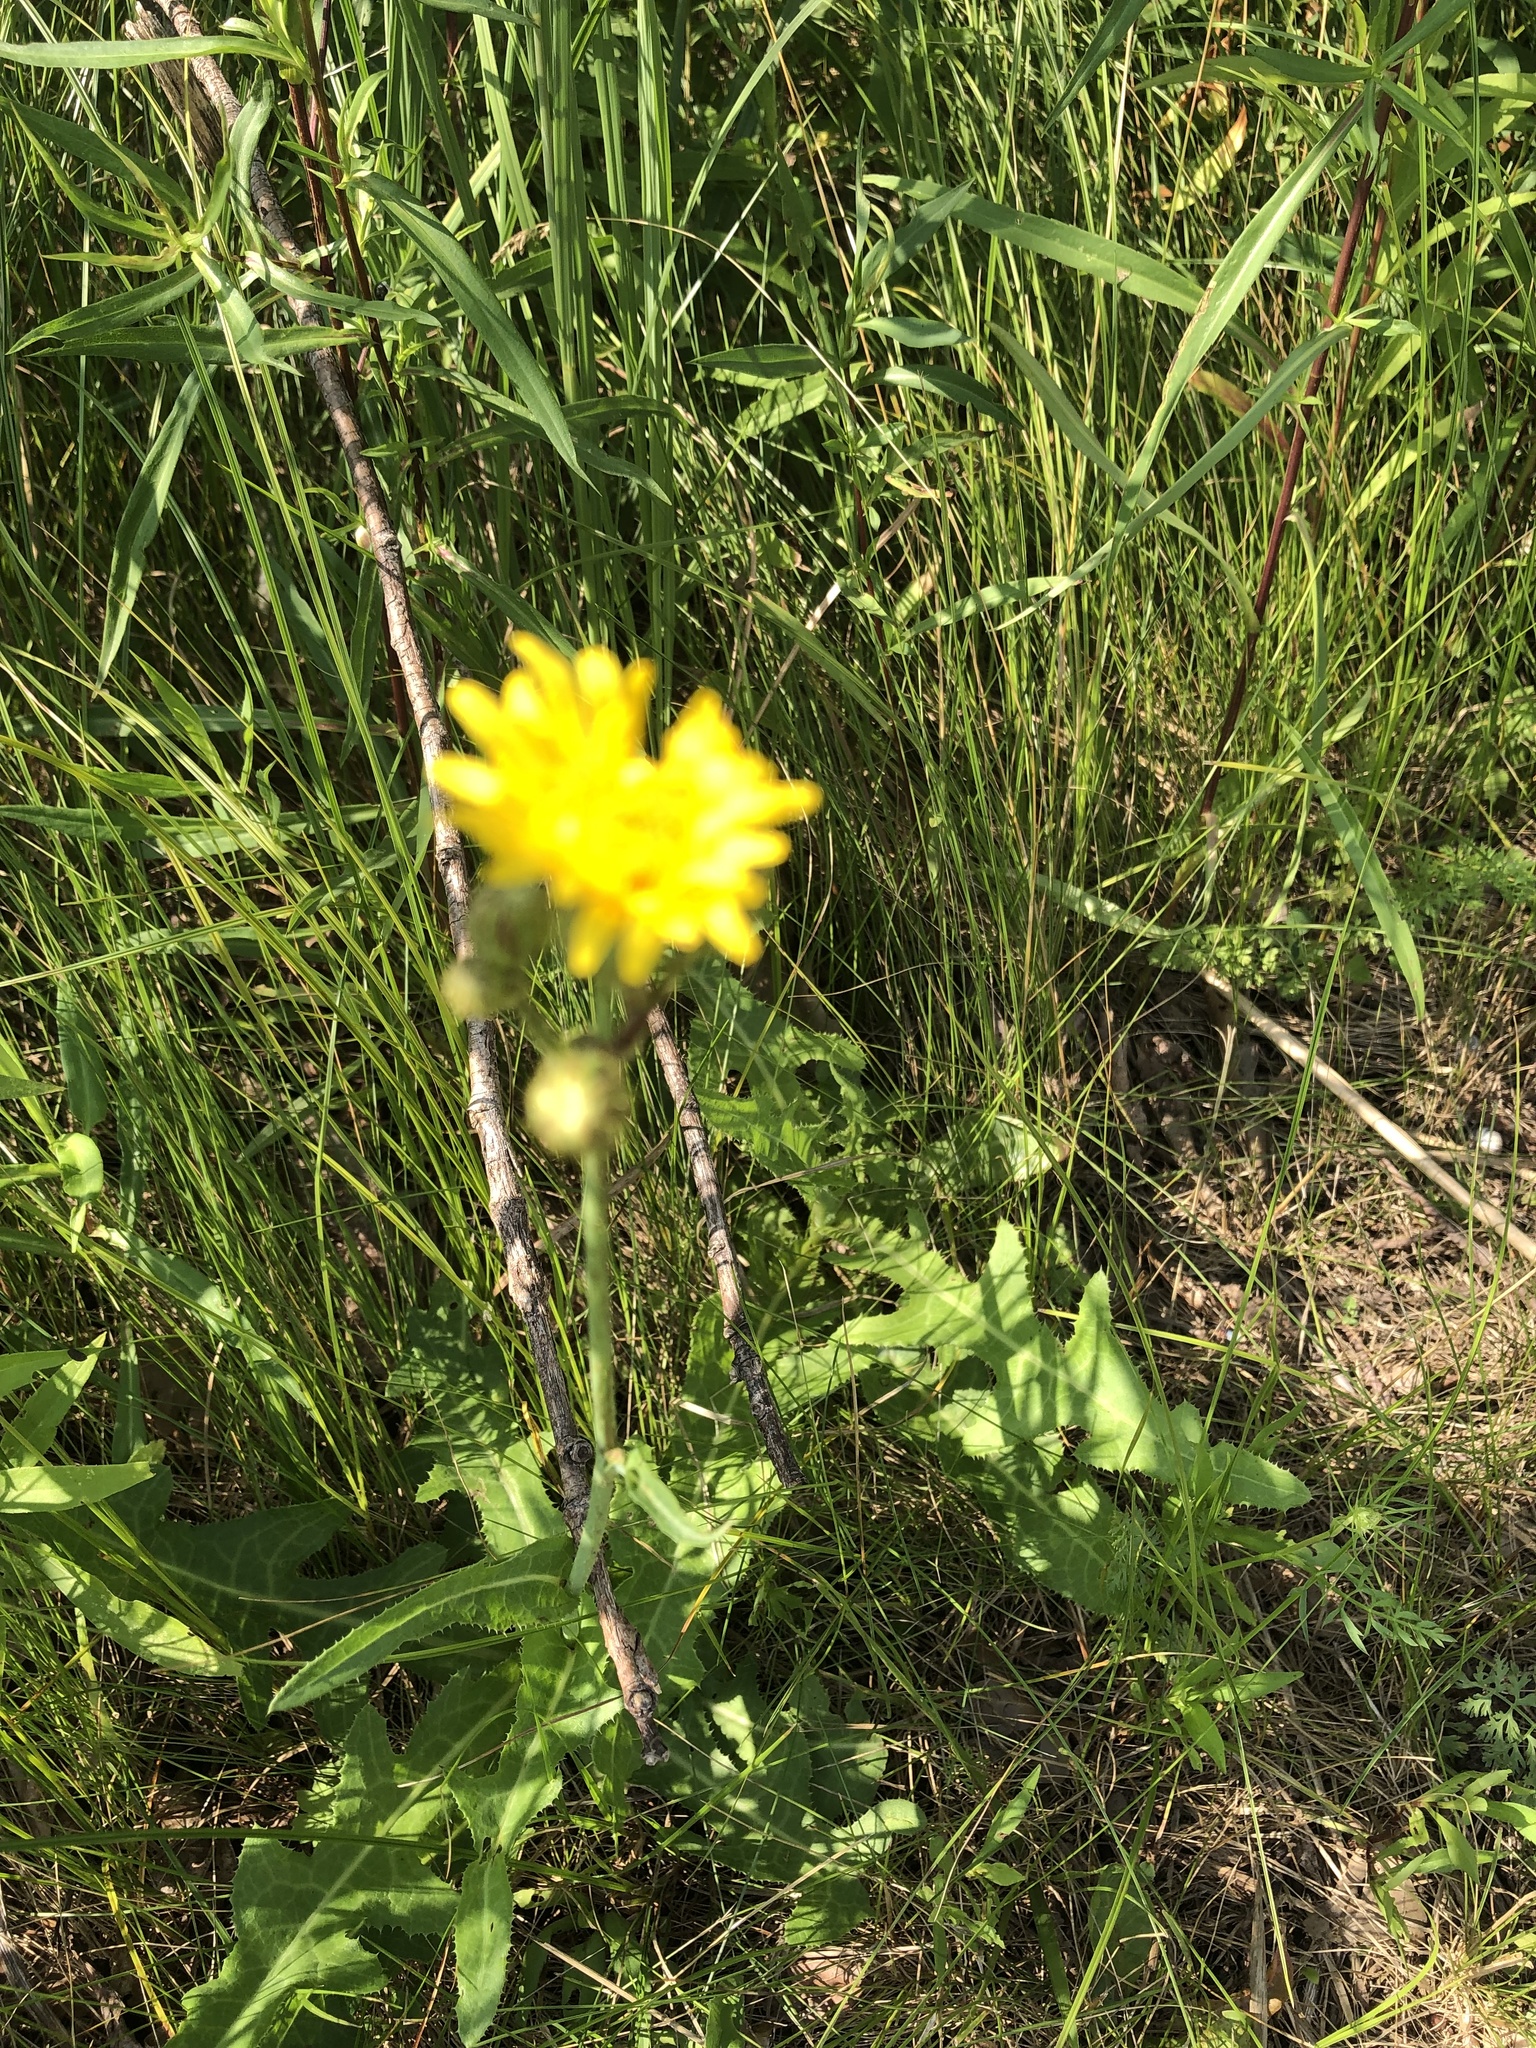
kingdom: Plantae
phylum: Tracheophyta
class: Magnoliopsida
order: Asterales
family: Asteraceae
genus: Sonchus
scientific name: Sonchus arvensis
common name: Perennial sow-thistle
